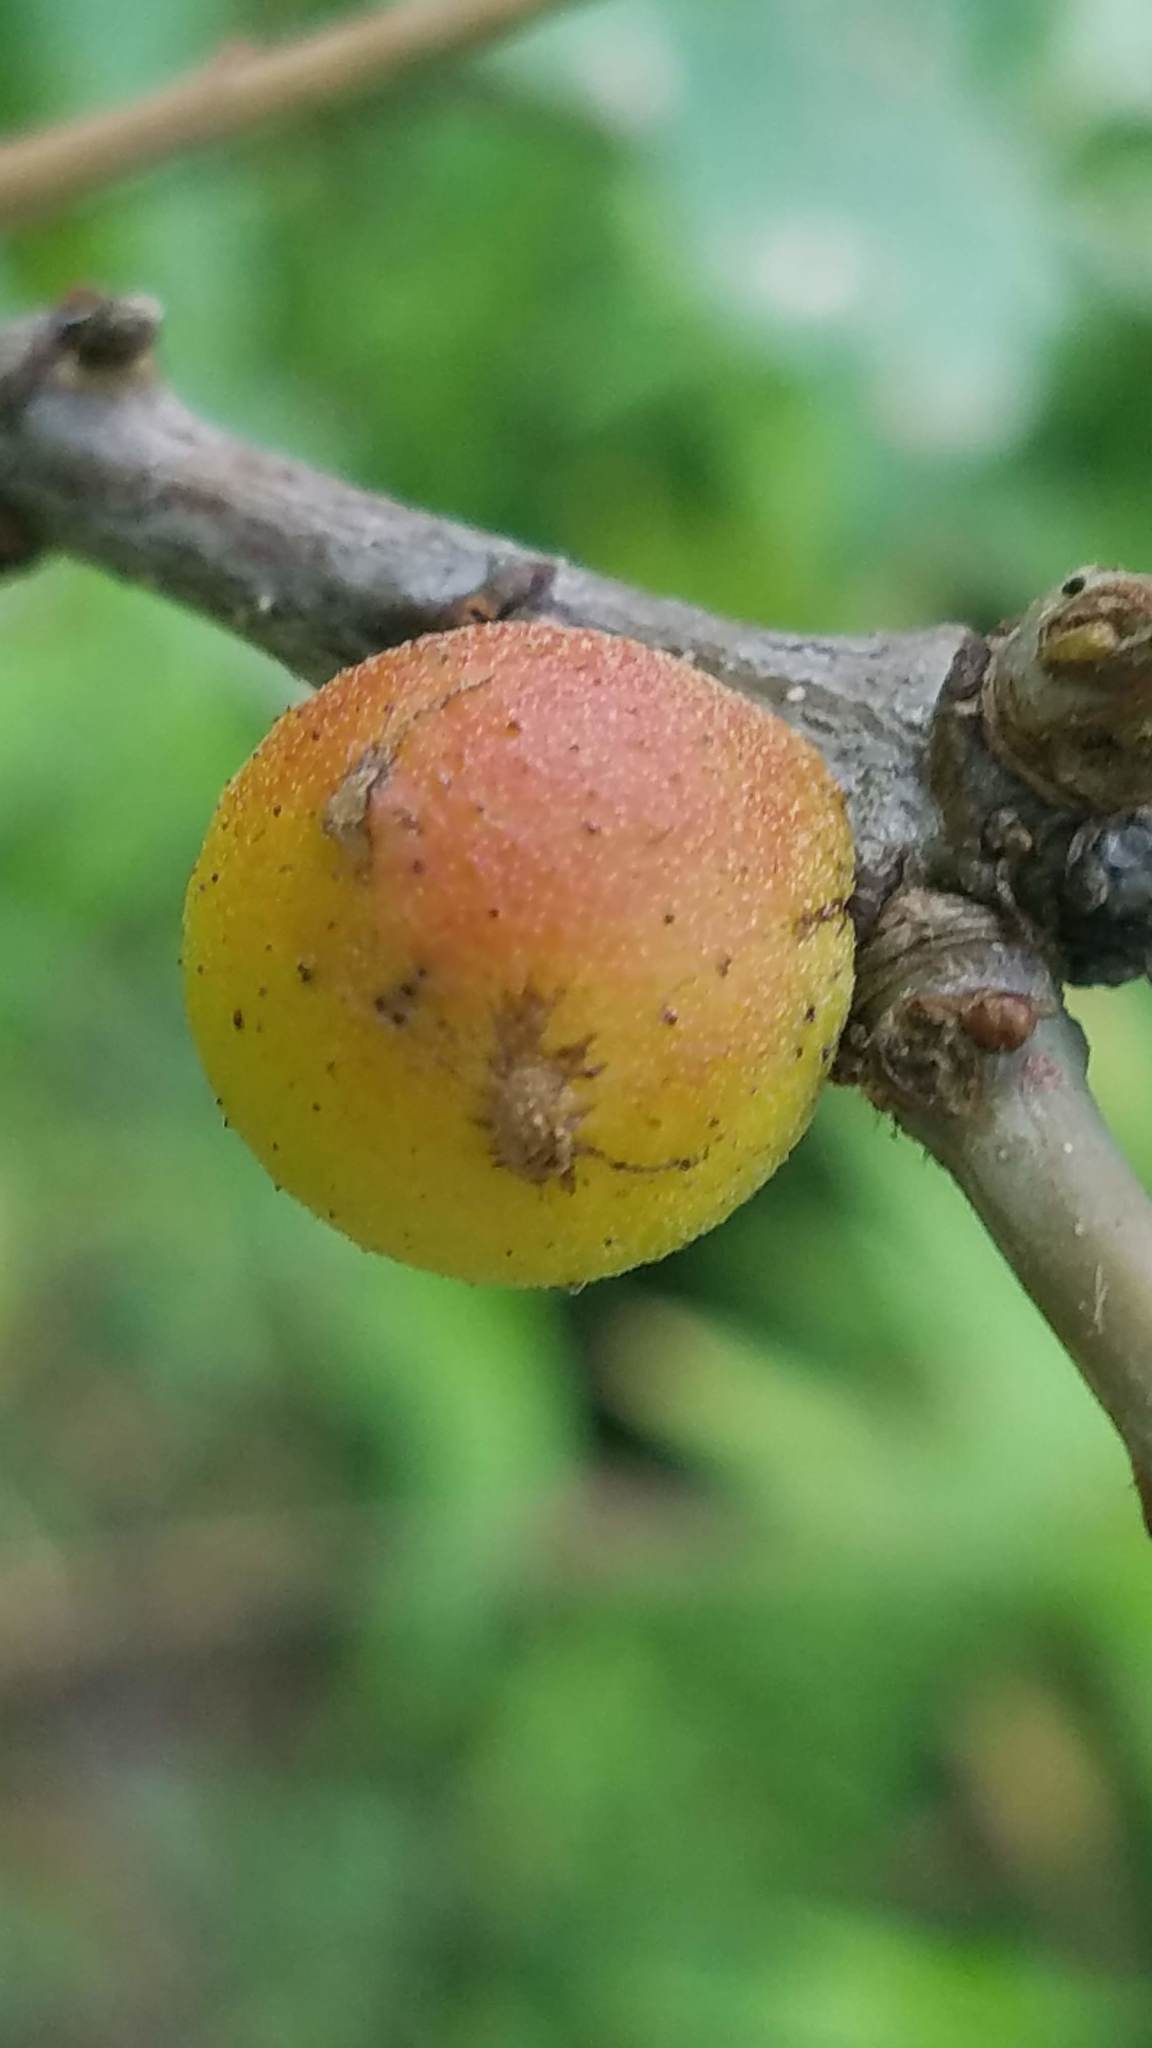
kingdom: Animalia
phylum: Arthropoda
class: Insecta
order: Hymenoptera
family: Cynipidae
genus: Disholcaspis
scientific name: Disholcaspis quercusglobulus
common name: Round bullet gall wasp
